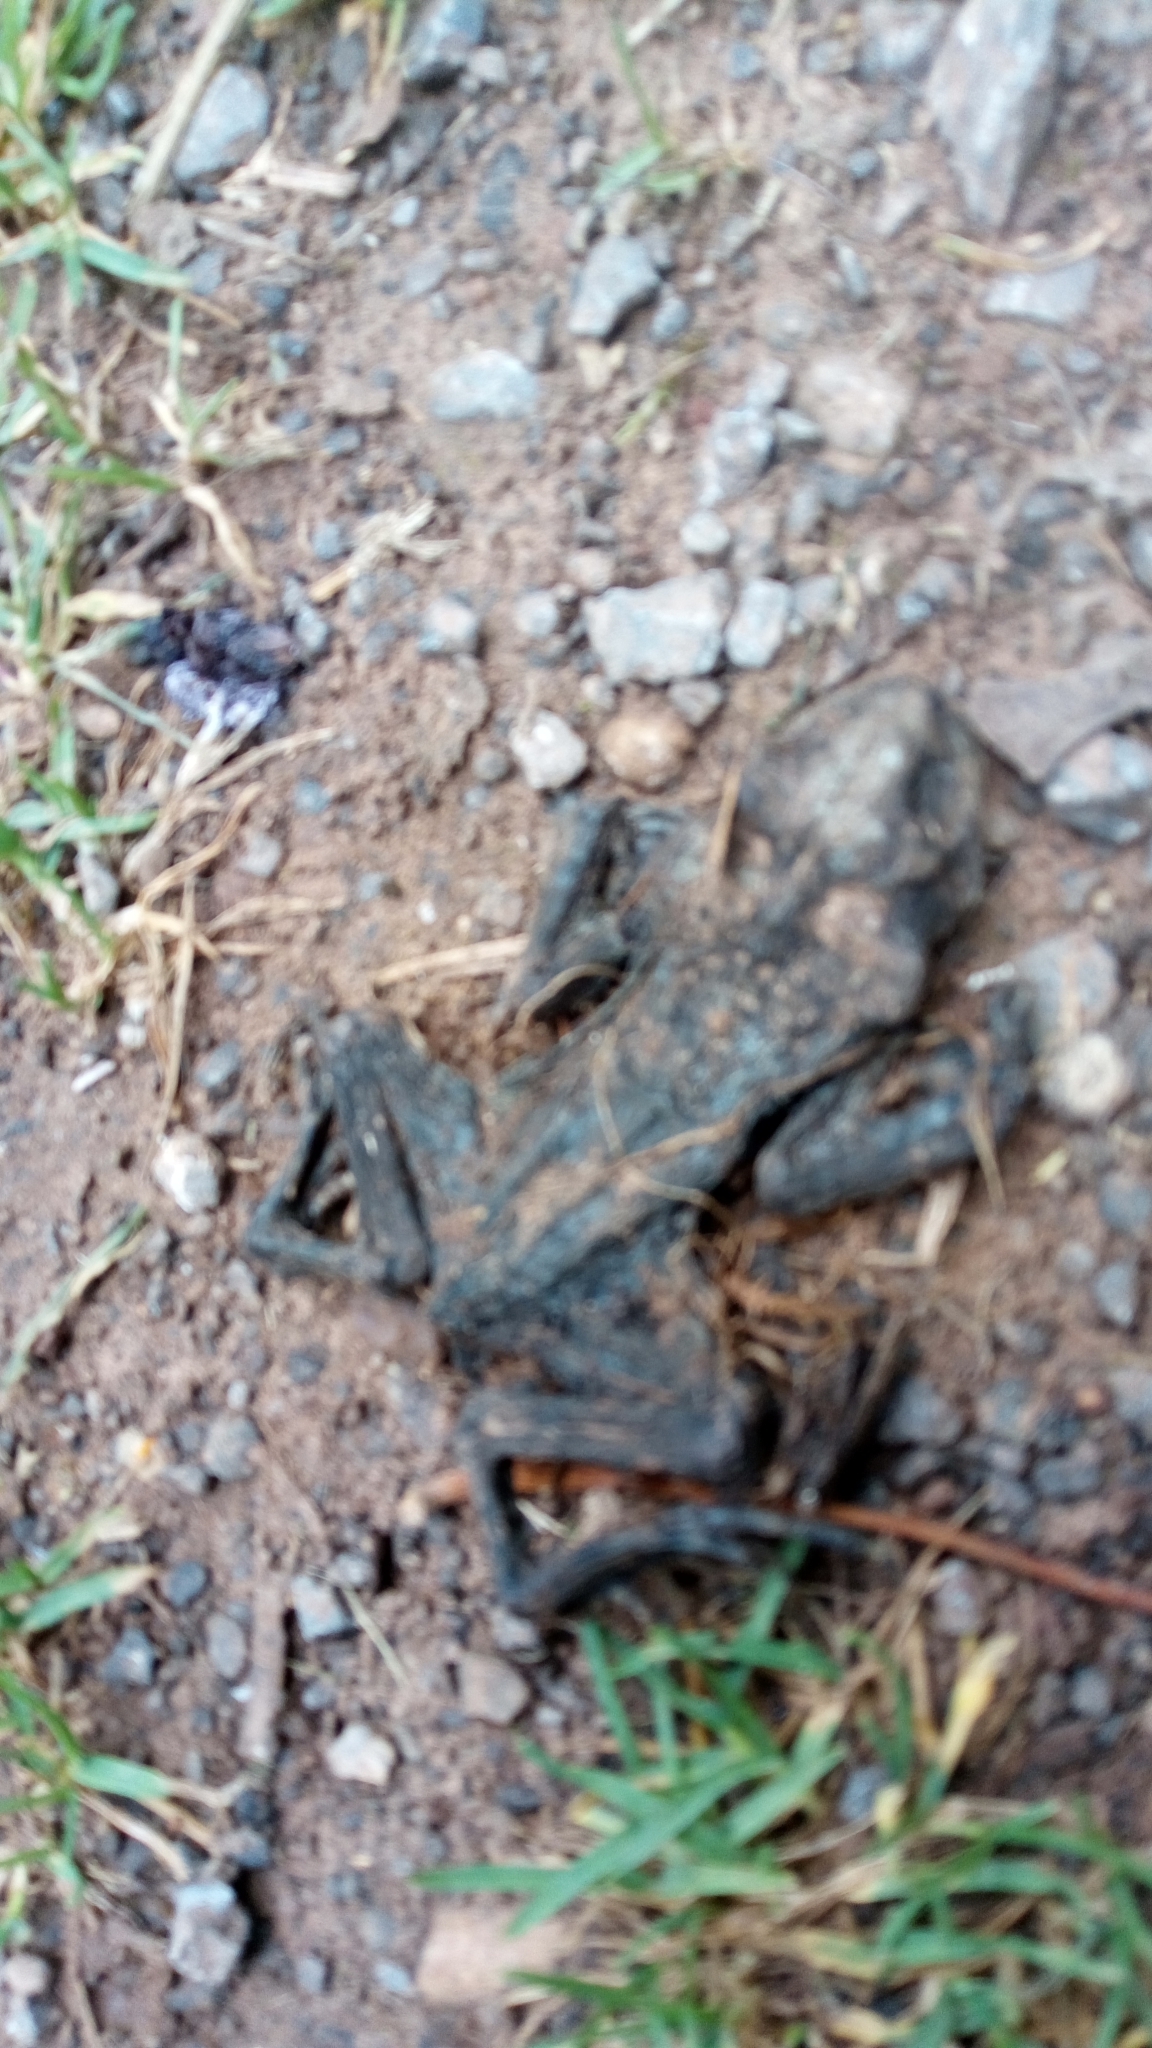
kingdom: Animalia
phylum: Chordata
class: Amphibia
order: Anura
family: Bufonidae
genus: Bufo
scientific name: Bufo bufo
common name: Common toad
